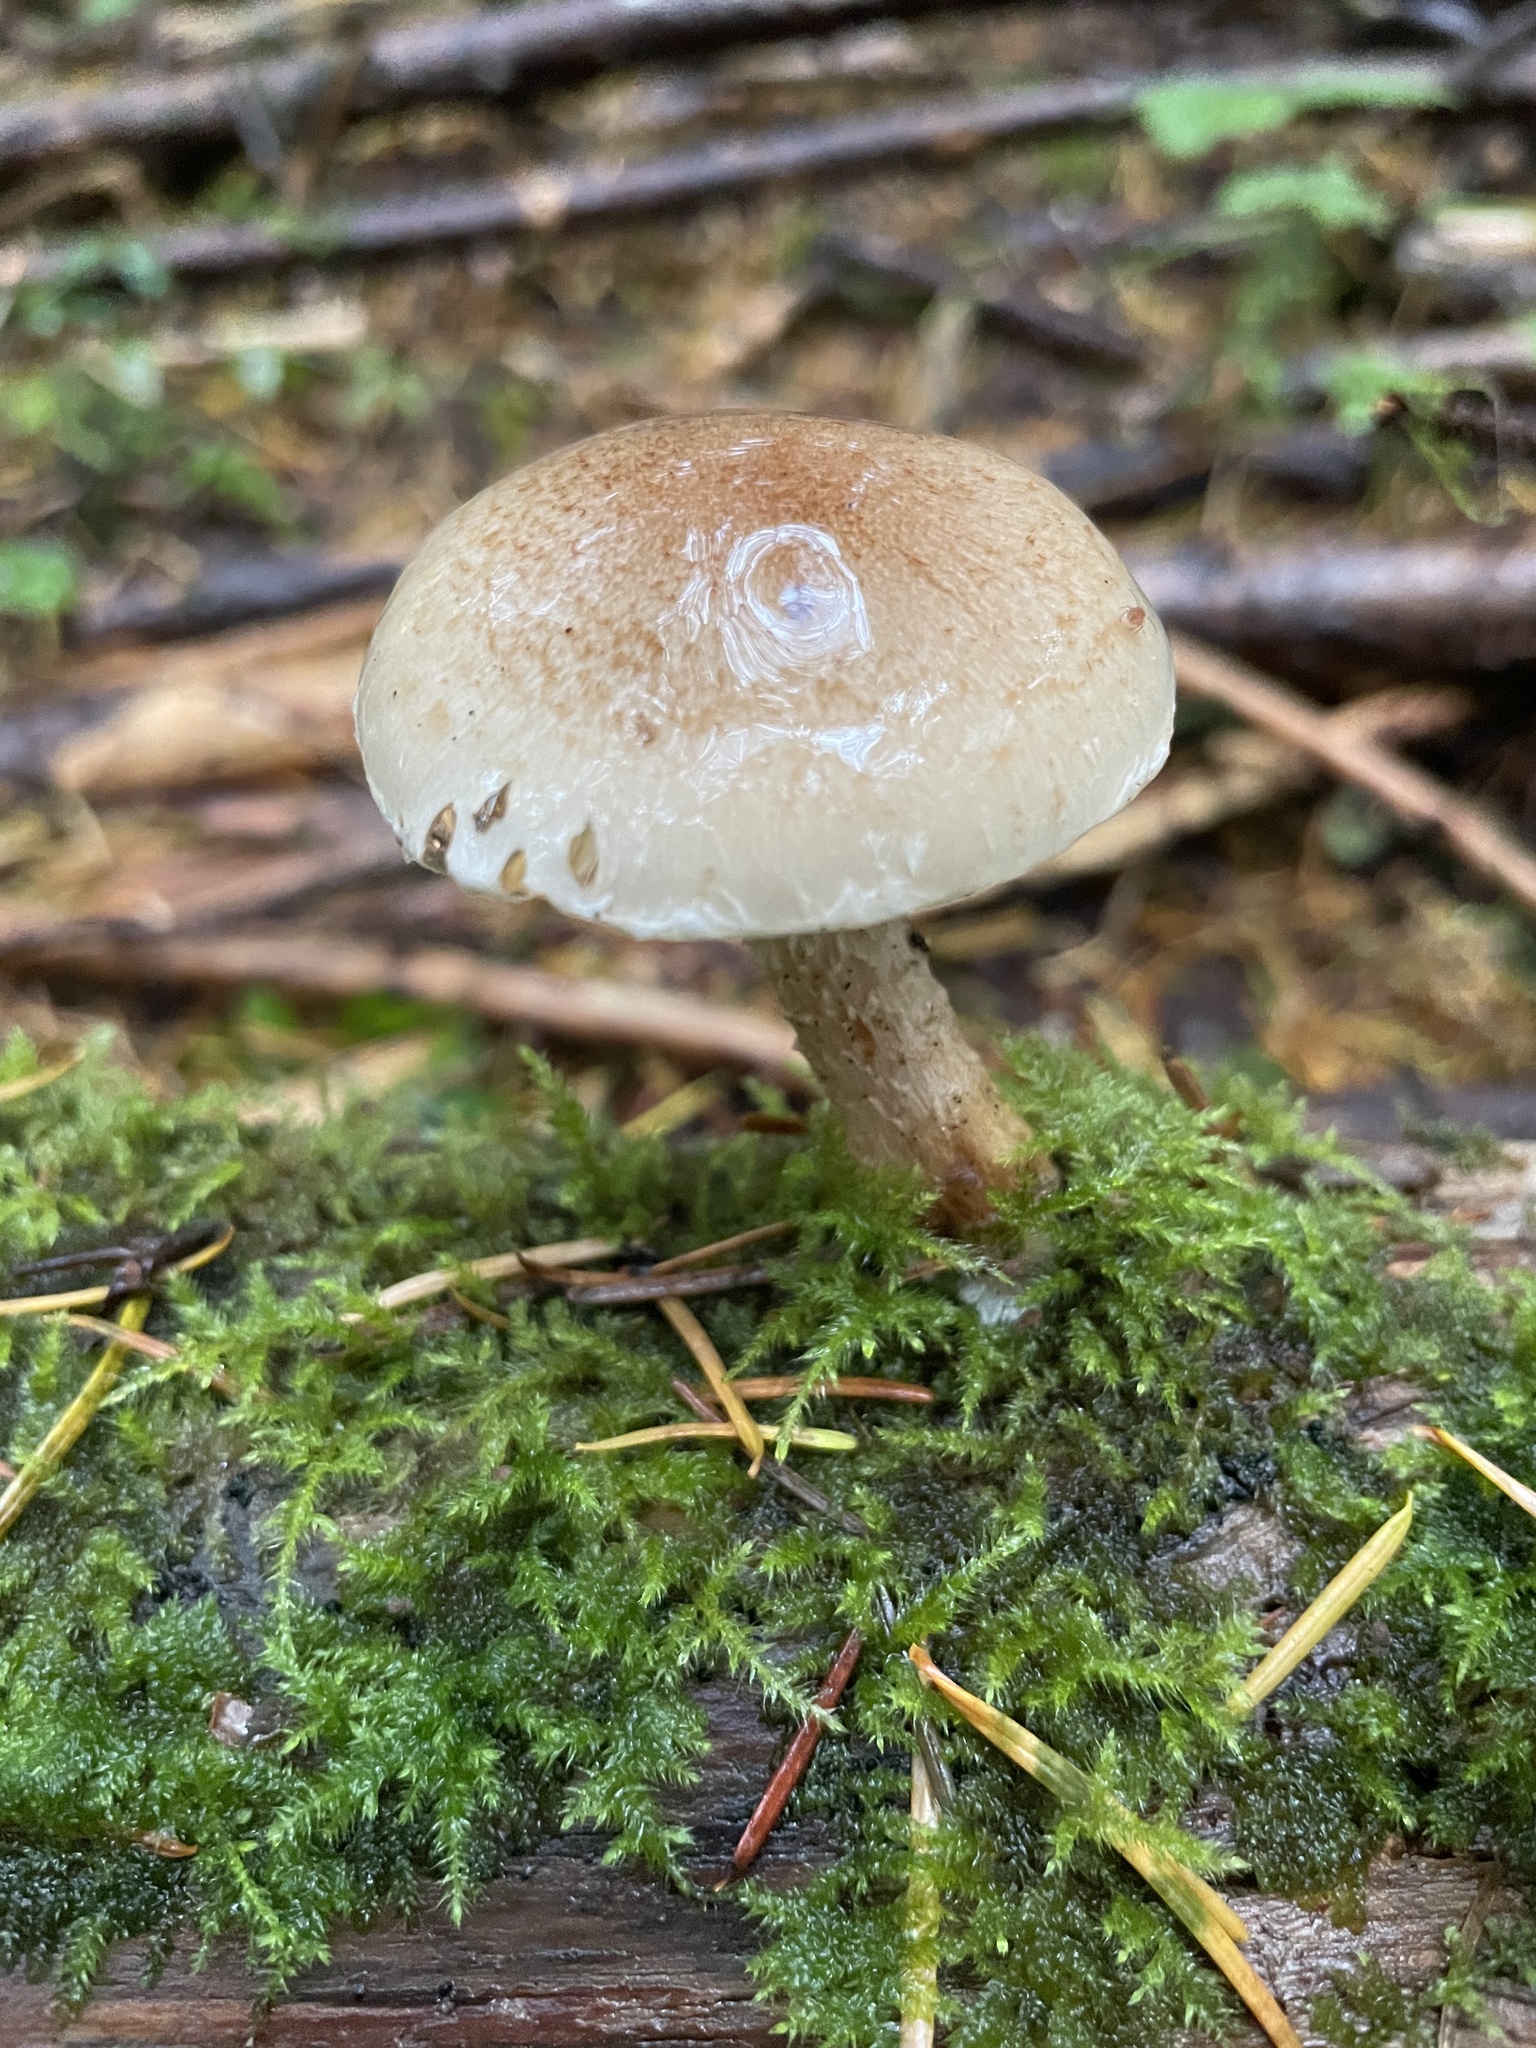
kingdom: Fungi
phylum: Basidiomycota
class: Agaricomycetes
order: Agaricales
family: Strophariaceae
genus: Pholiota
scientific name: Pholiota decorata
